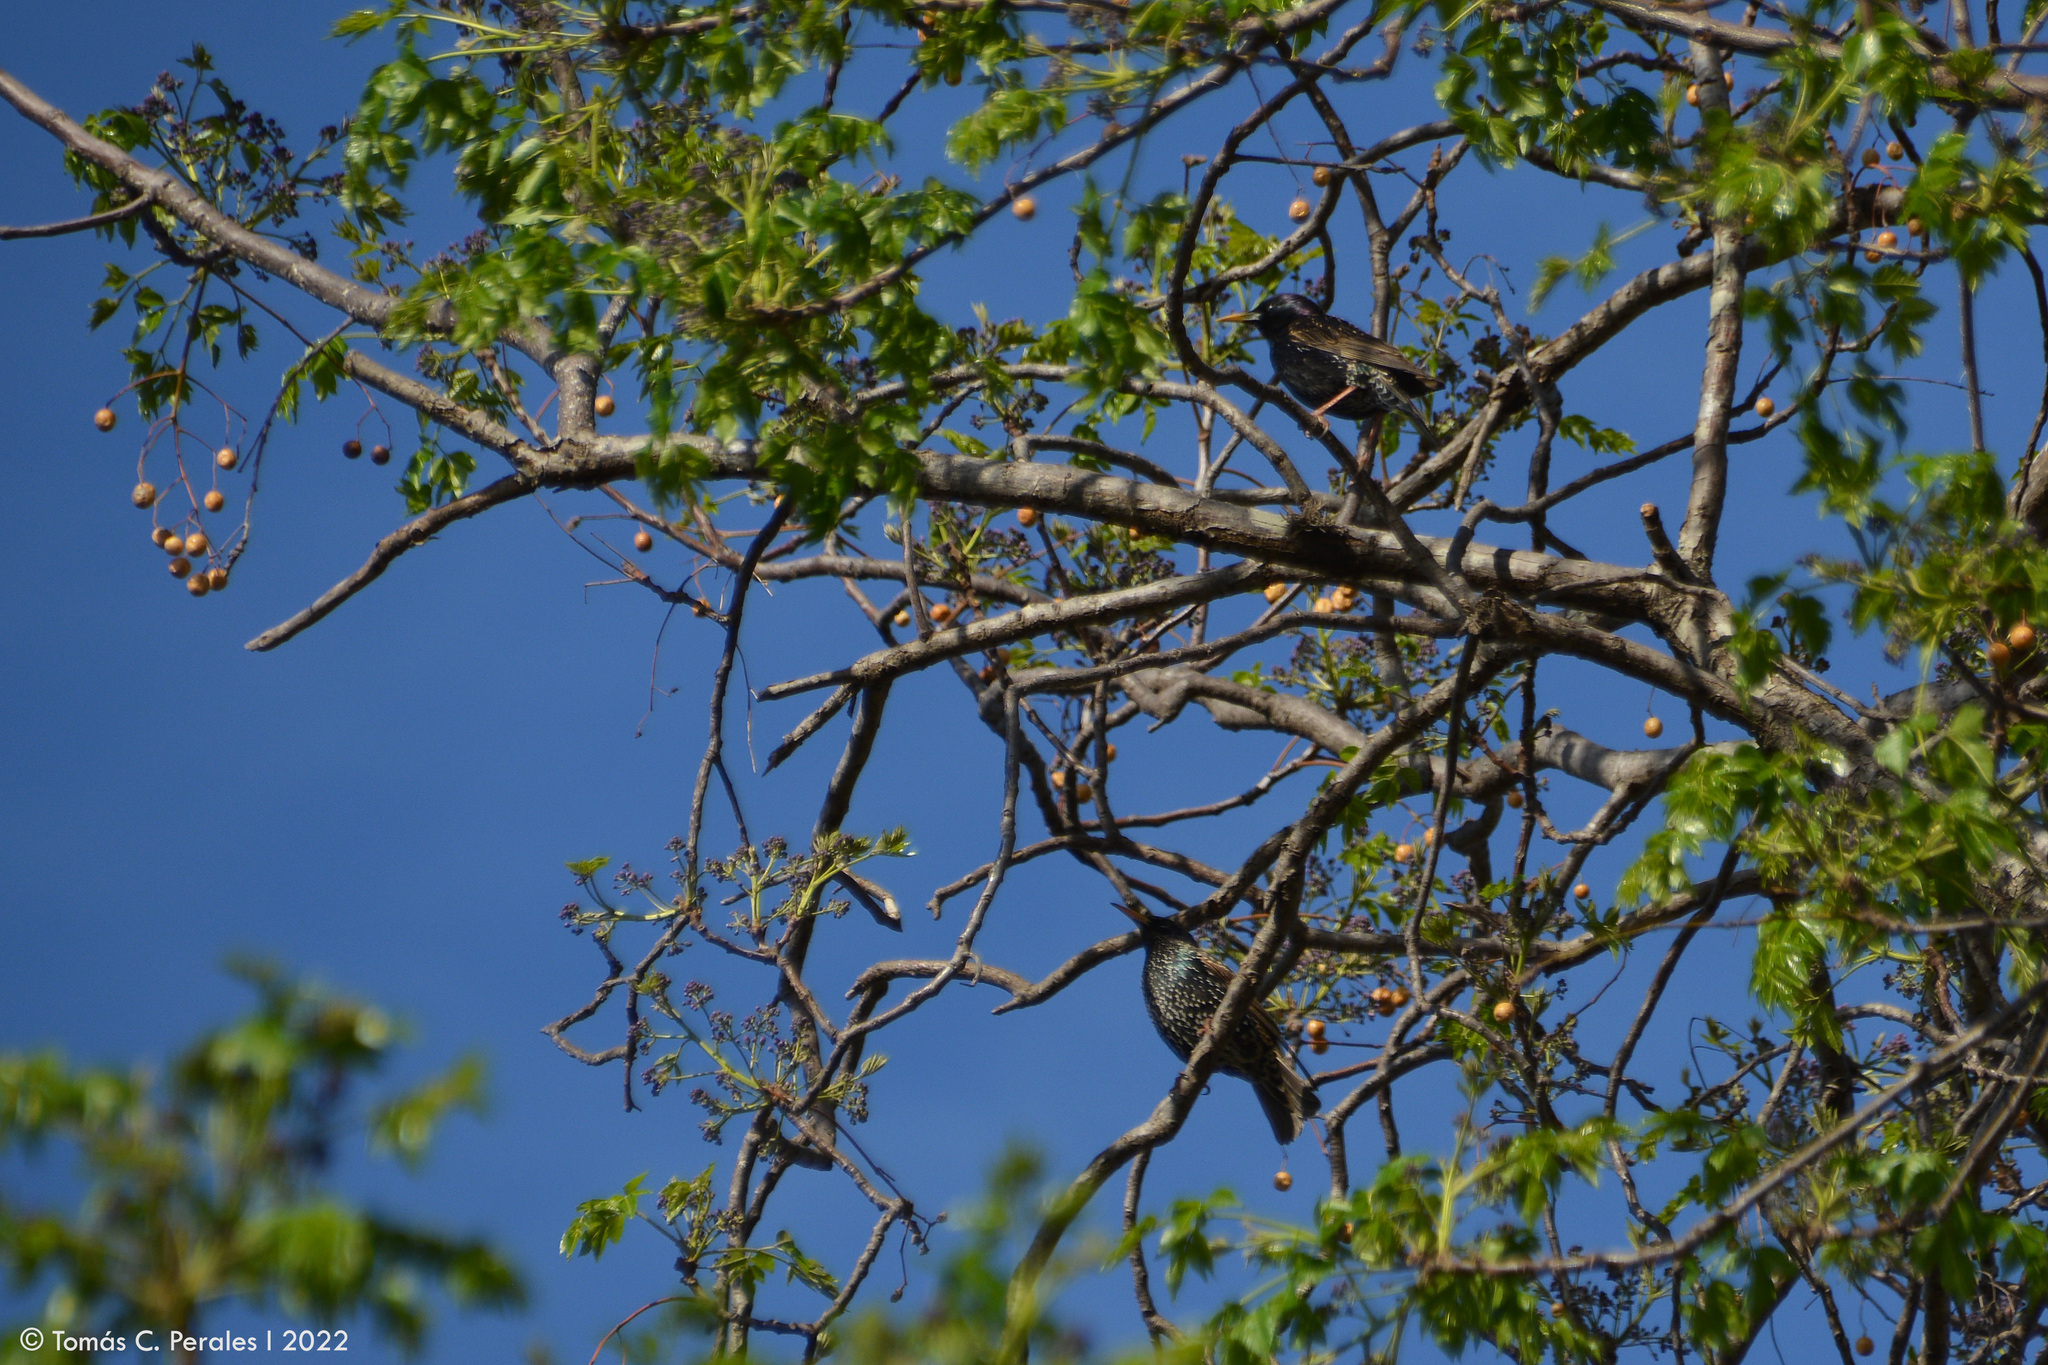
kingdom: Animalia
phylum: Chordata
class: Aves
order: Passeriformes
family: Sturnidae
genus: Sturnus
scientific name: Sturnus vulgaris
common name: Common starling
